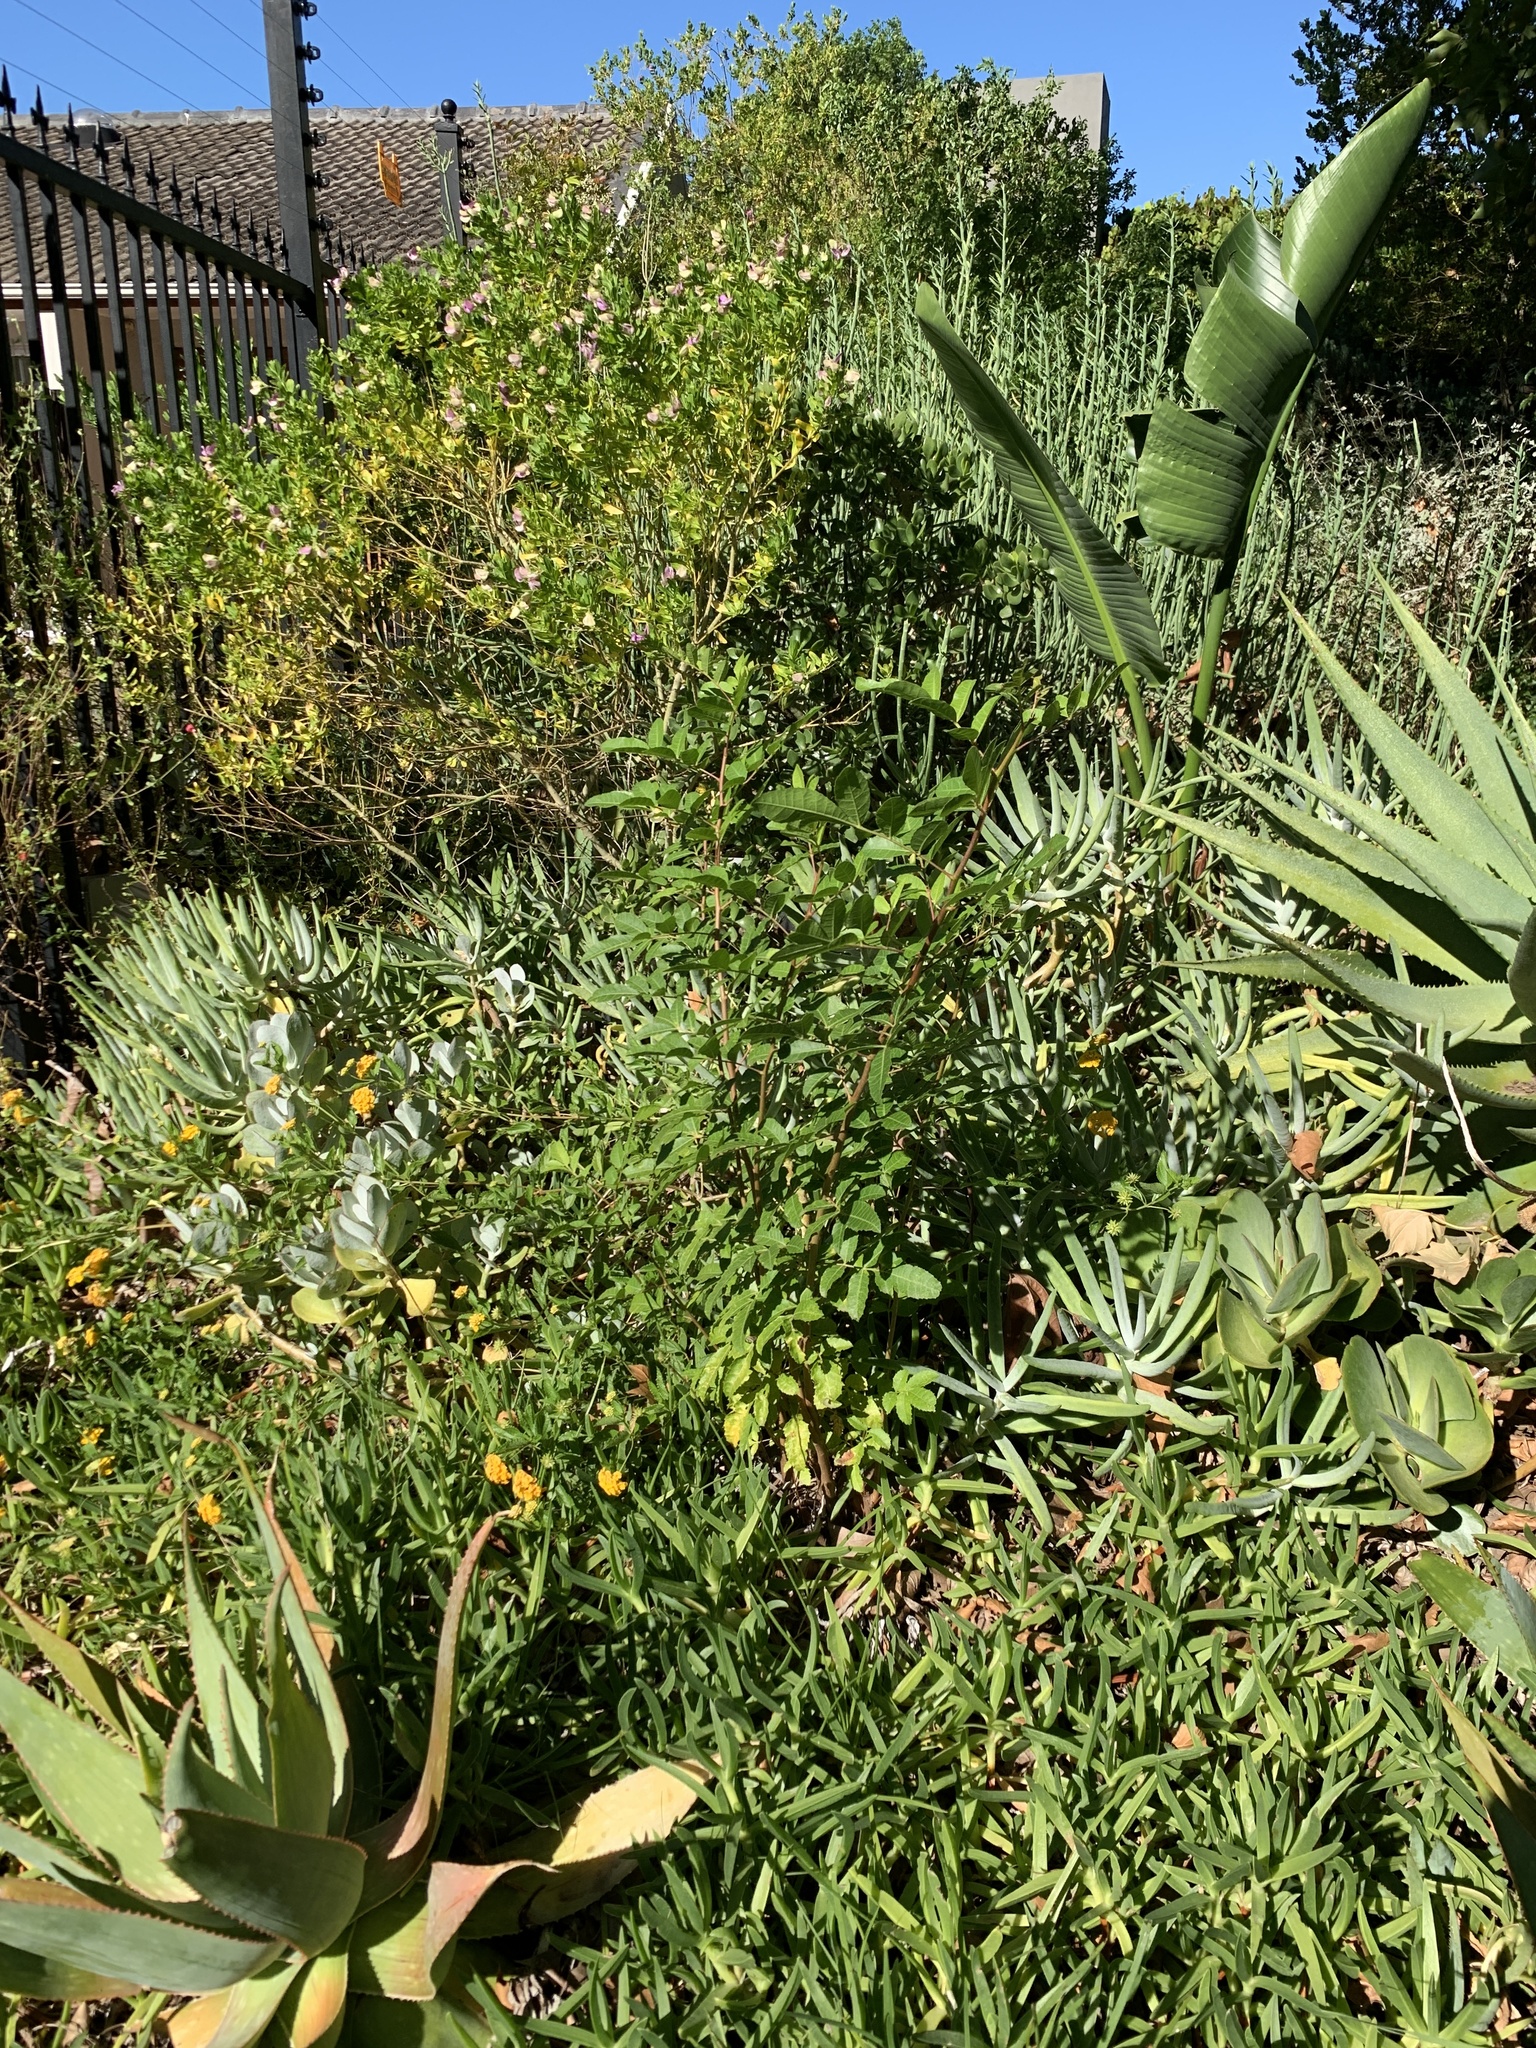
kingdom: Plantae
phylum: Tracheophyta
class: Magnoliopsida
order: Sapindales
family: Anacardiaceae
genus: Schinus
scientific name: Schinus terebinthifolia
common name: Brazilian peppertree
